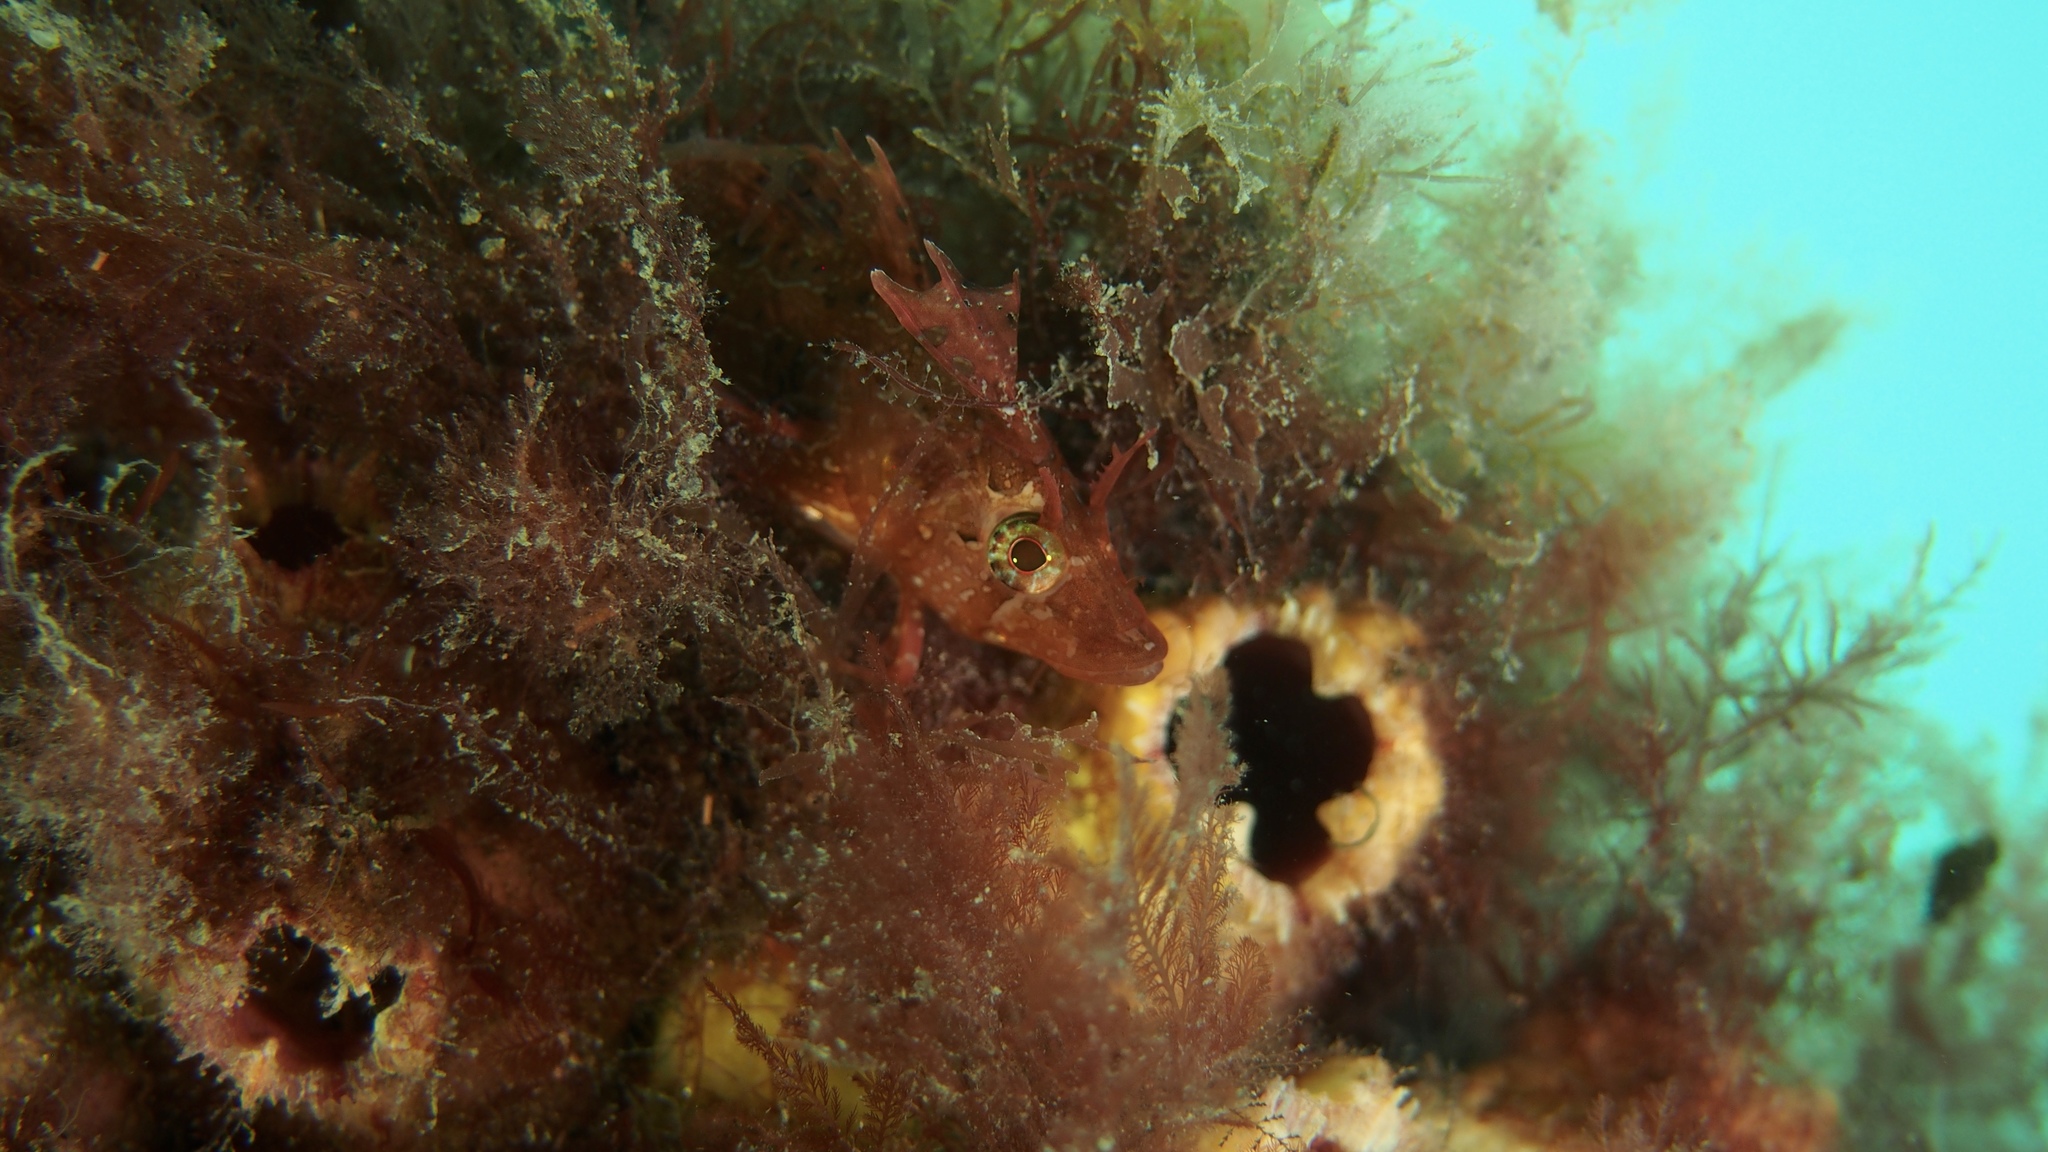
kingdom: Animalia
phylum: Chordata
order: Perciformes
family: Clinidae
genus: Heteroclinus
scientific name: Heteroclinus tristis
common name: Sharp-nose weedfish
